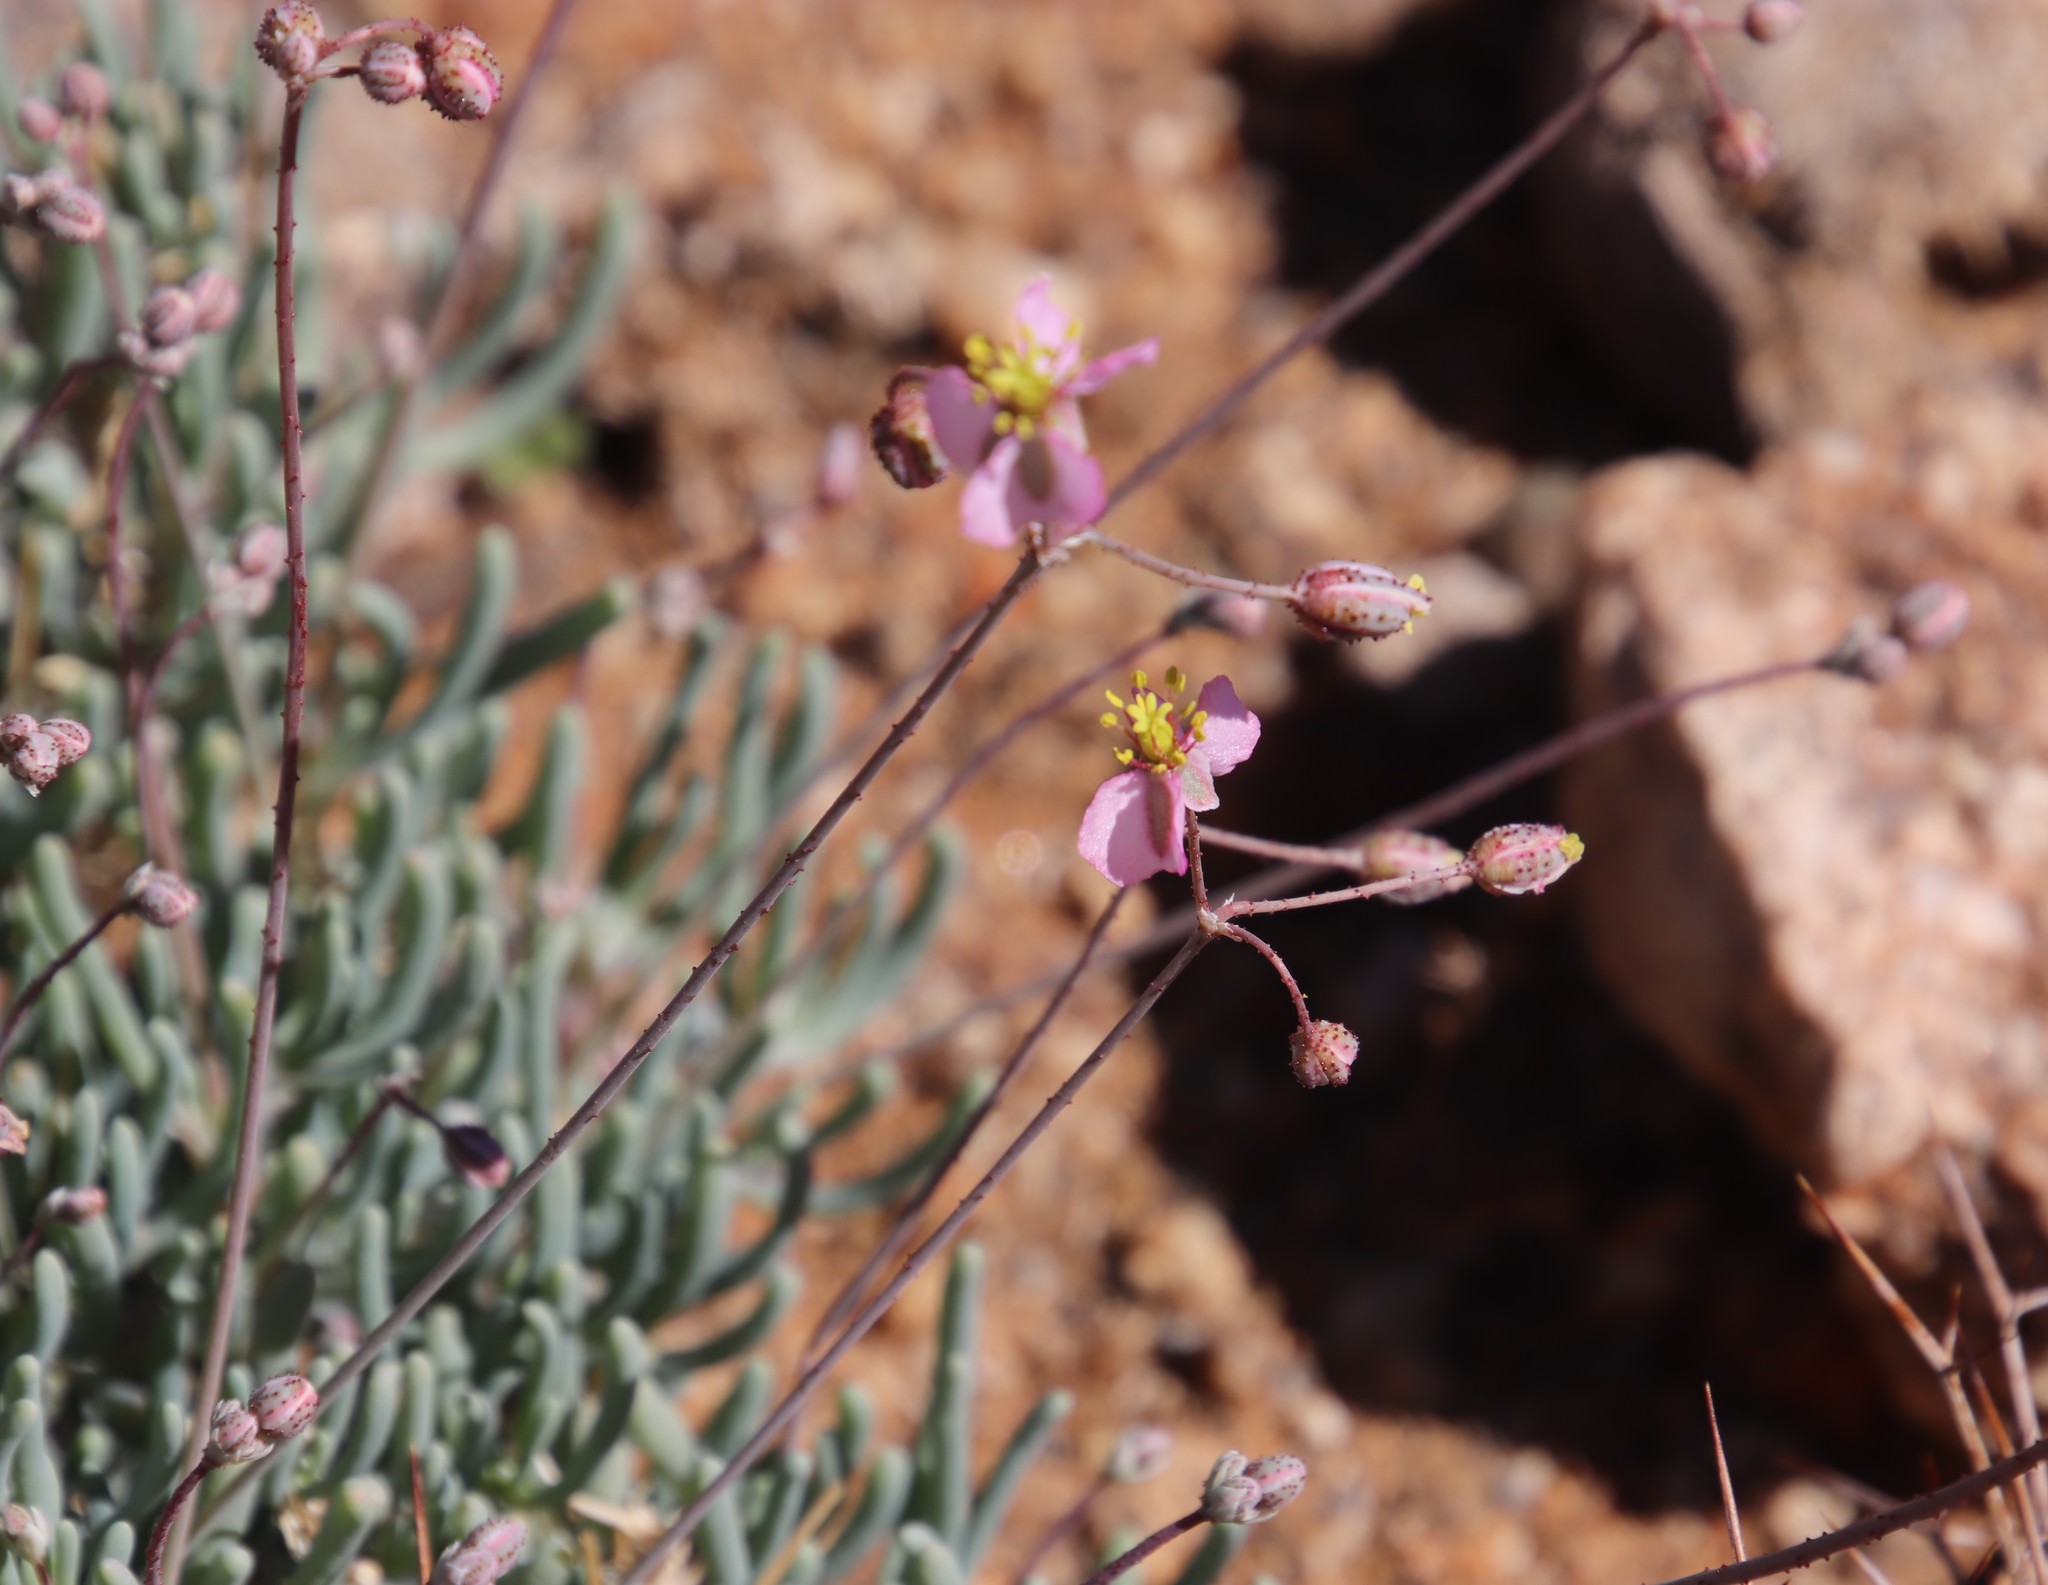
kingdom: Plantae
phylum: Tracheophyta
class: Magnoliopsida
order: Caryophyllales
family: Kewaceae
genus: Kewa
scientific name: Kewa salsoloides
